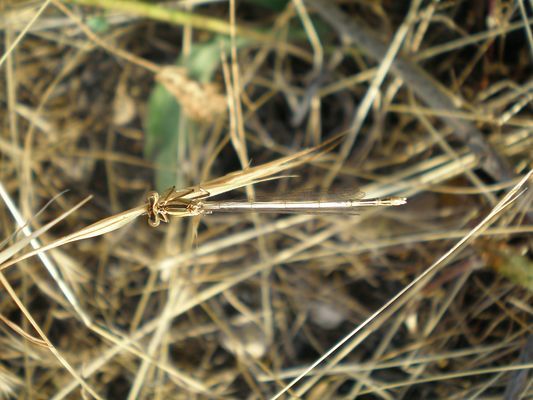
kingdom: Animalia
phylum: Arthropoda
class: Insecta
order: Odonata
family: Platycnemididae
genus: Platycnemis
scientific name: Platycnemis latipes
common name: White featherleg
